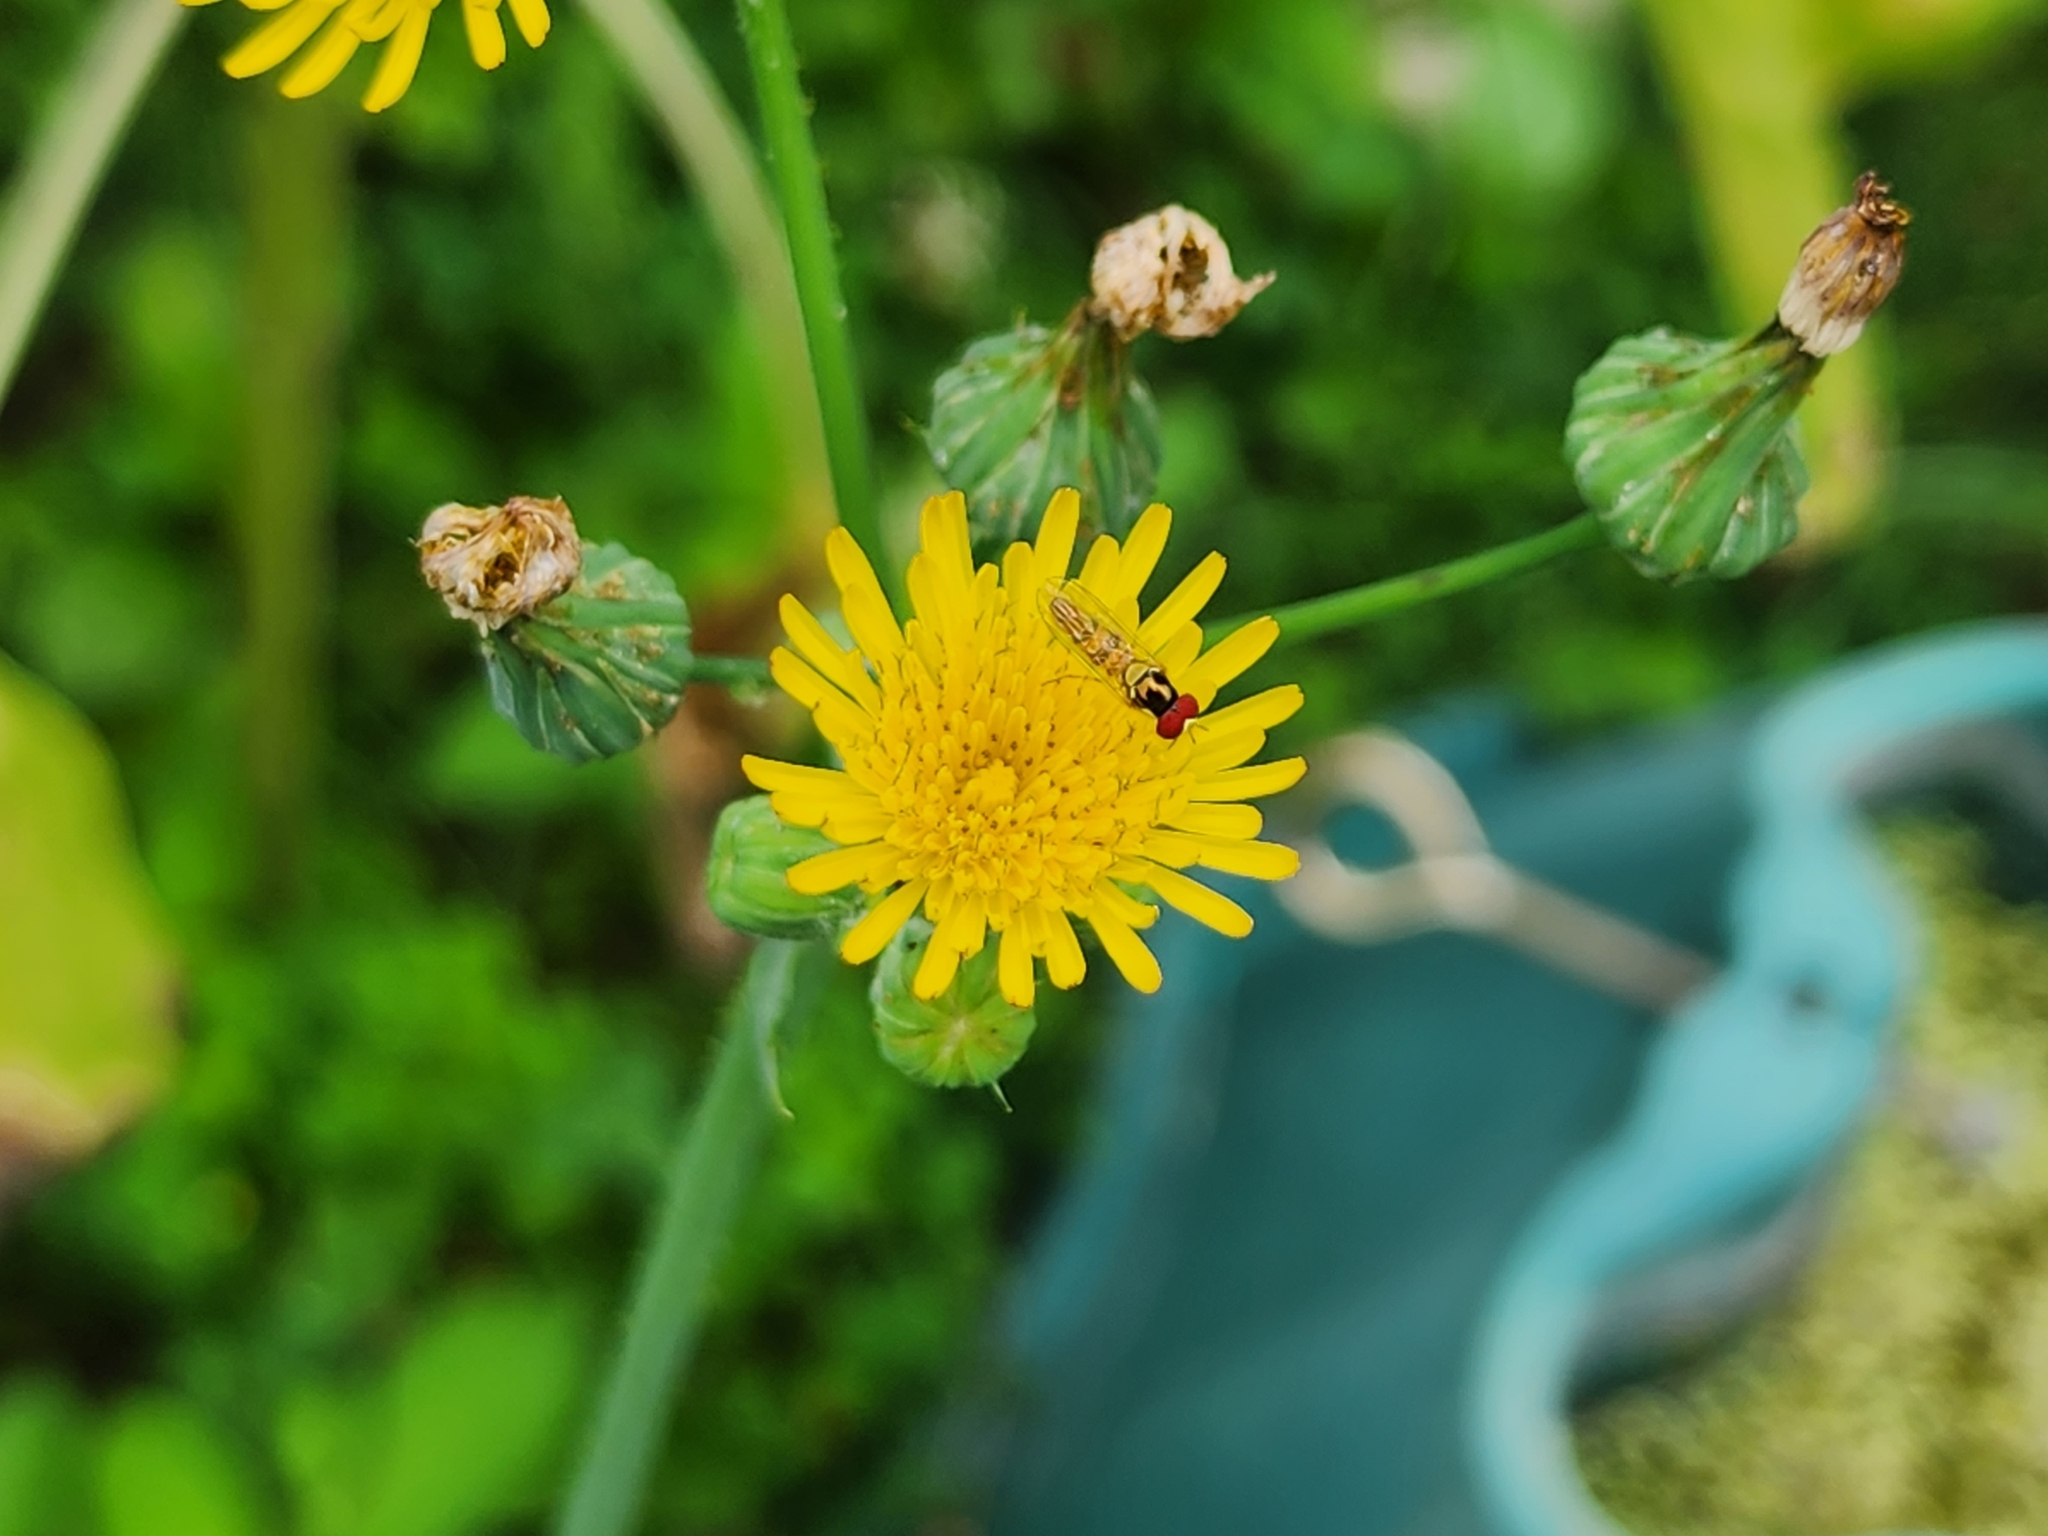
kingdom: Animalia
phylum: Arthropoda
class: Insecta
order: Diptera
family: Syrphidae
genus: Allograpta
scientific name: Allograpta obliqua
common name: Common oblique syrphid
